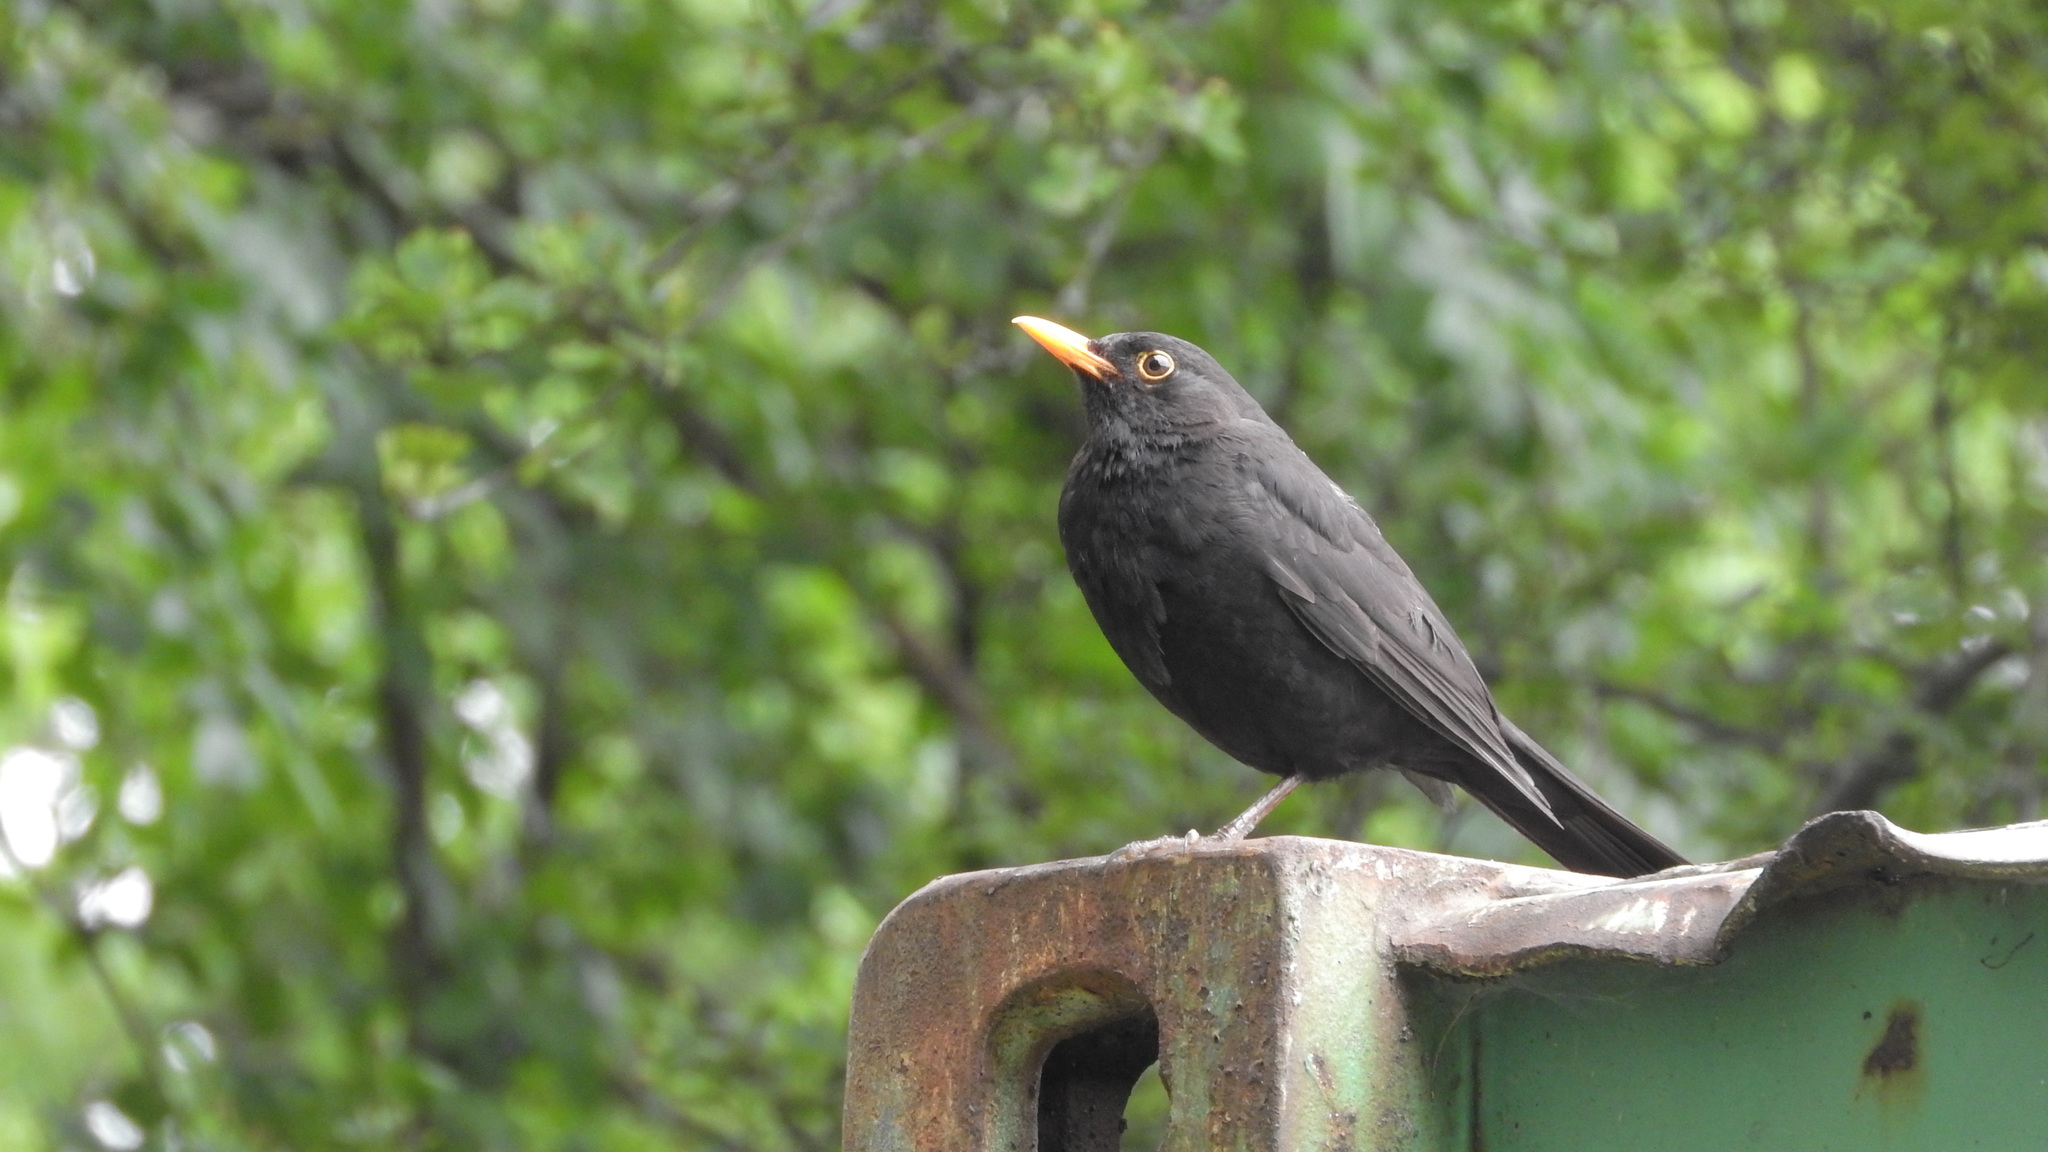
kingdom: Animalia
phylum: Chordata
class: Aves
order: Passeriformes
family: Turdidae
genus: Turdus
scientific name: Turdus merula
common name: Common blackbird
